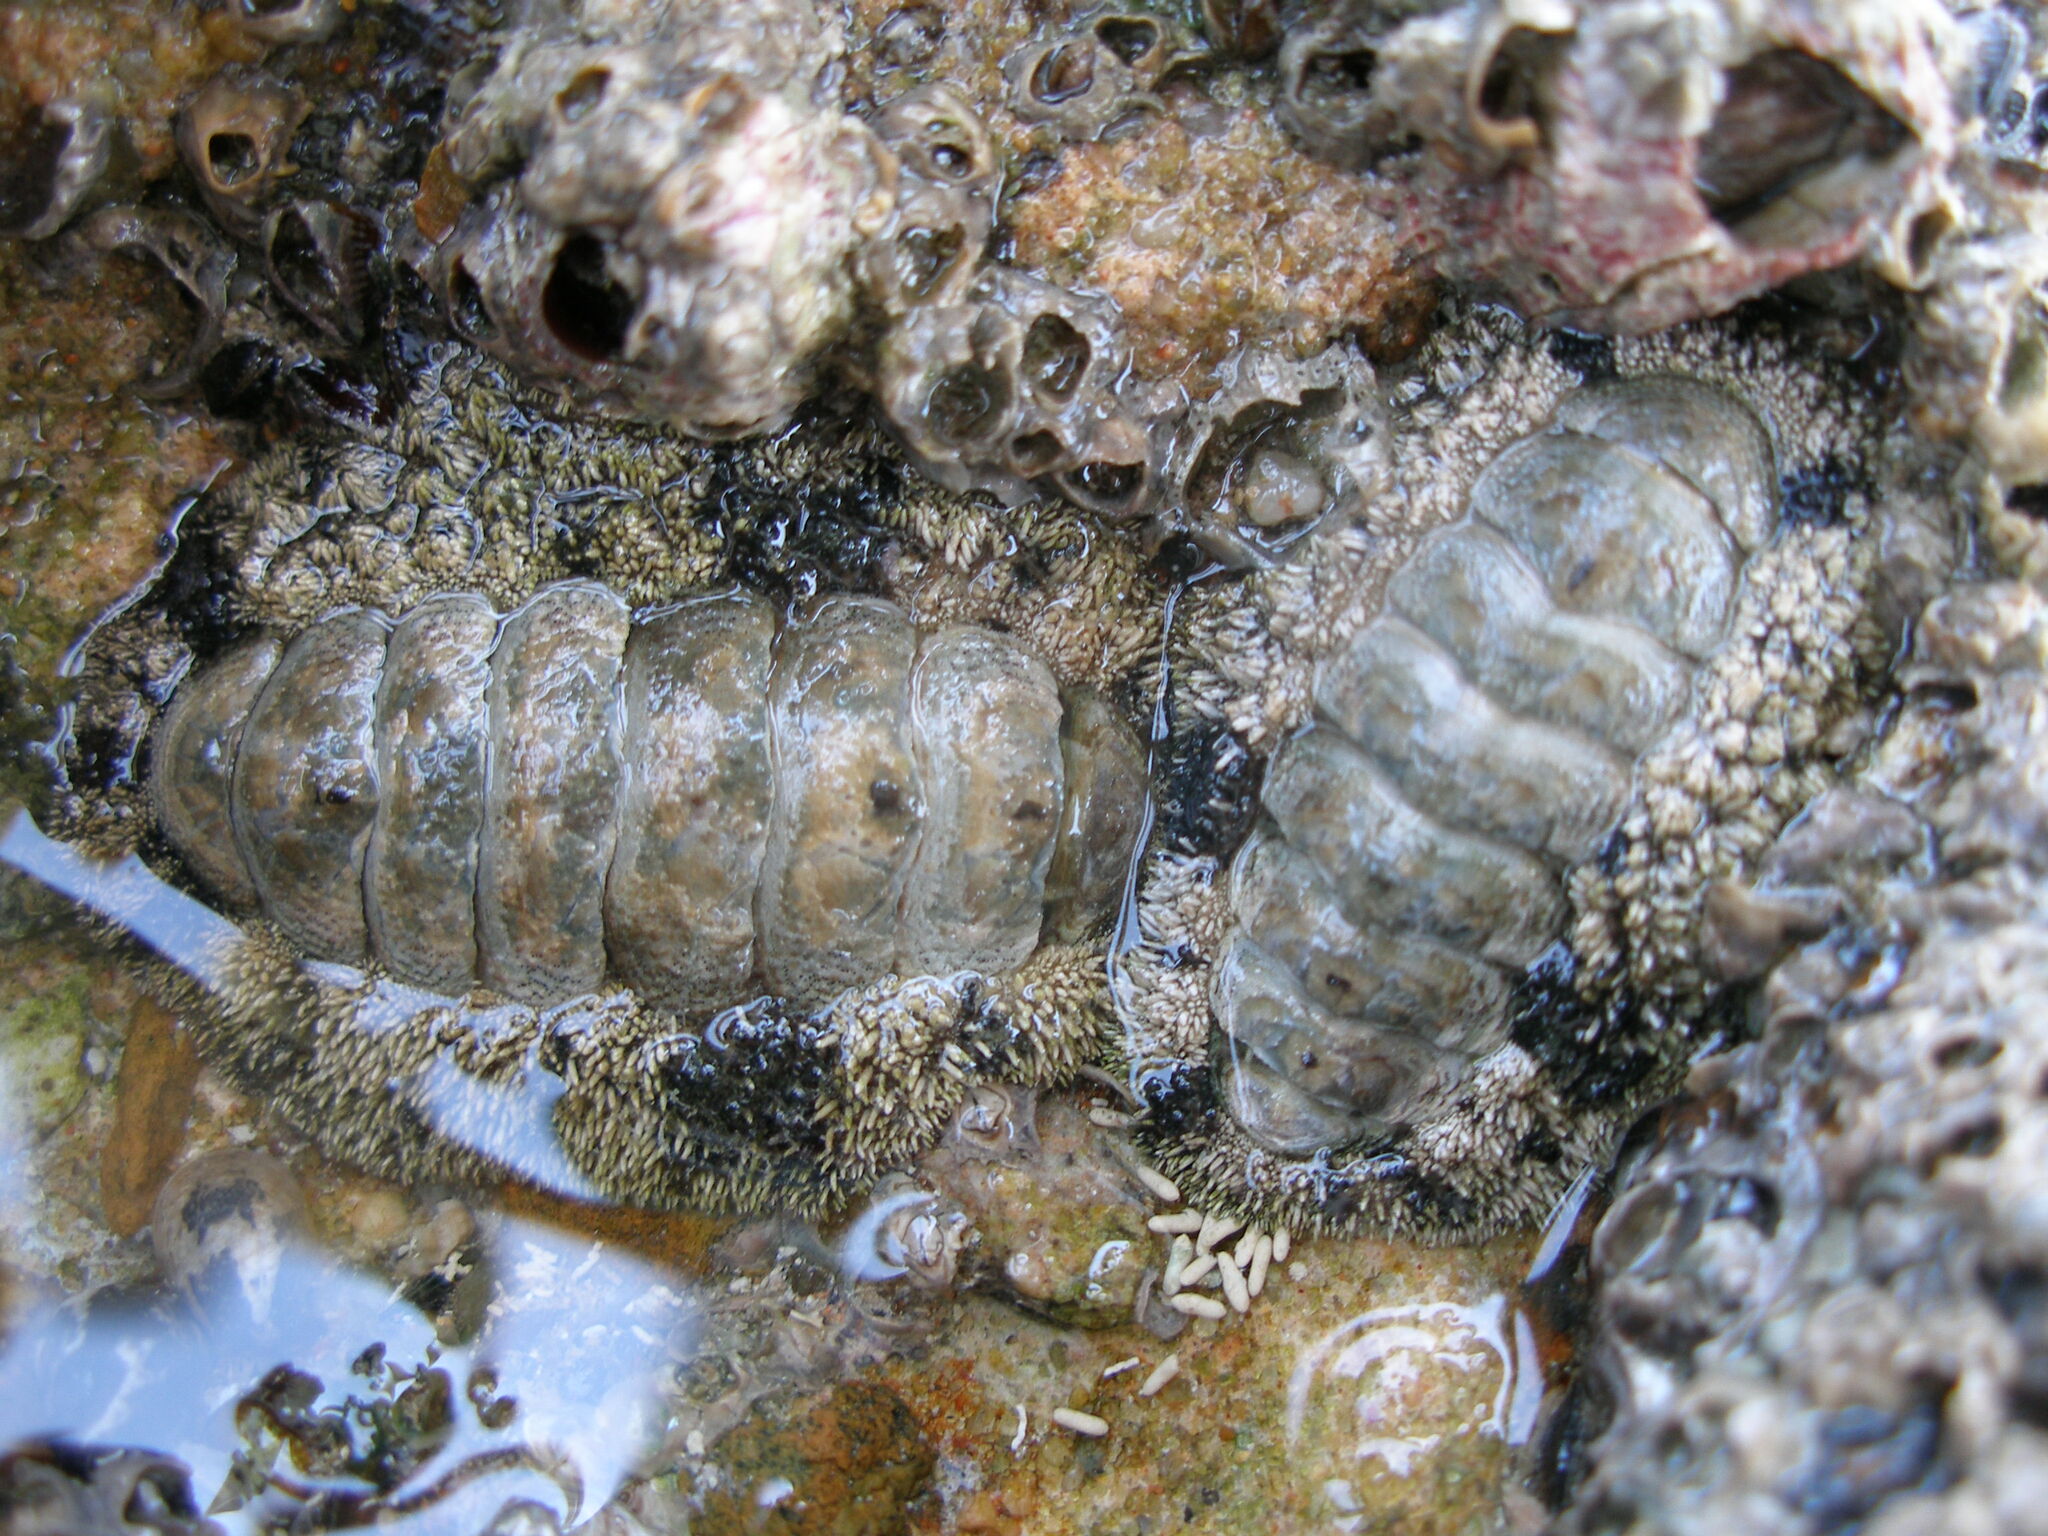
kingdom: Animalia
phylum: Mollusca
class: Polyplacophora
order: Chitonida
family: Chitonidae
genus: Acanthopleura
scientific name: Acanthopleura vaillantii
